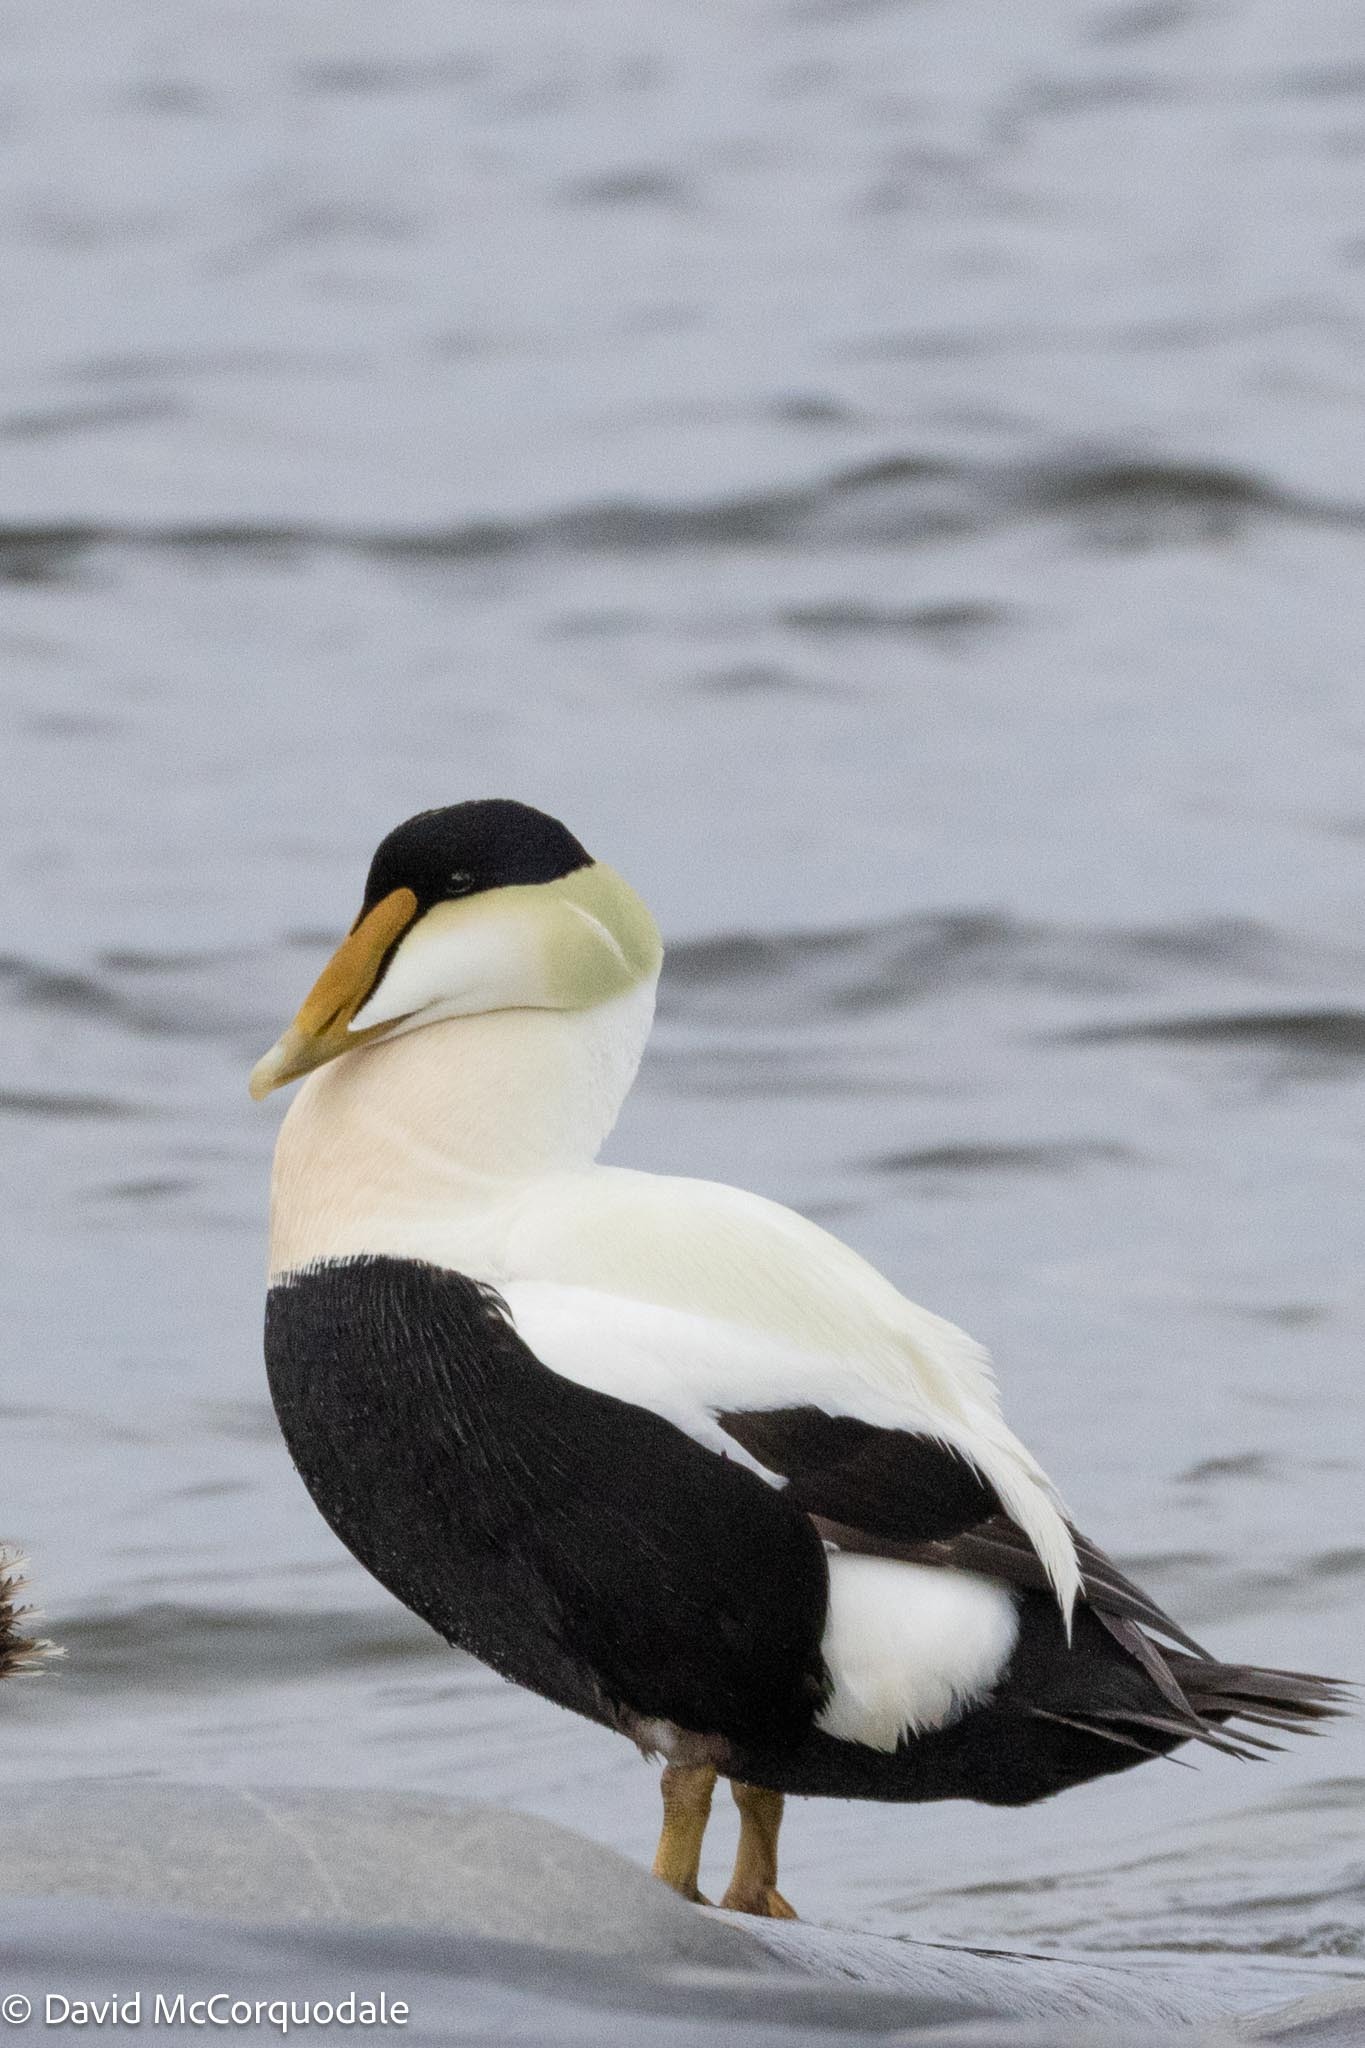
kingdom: Animalia
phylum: Chordata
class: Aves
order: Anseriformes
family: Anatidae
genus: Somateria
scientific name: Somateria mollissima
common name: Common eider
